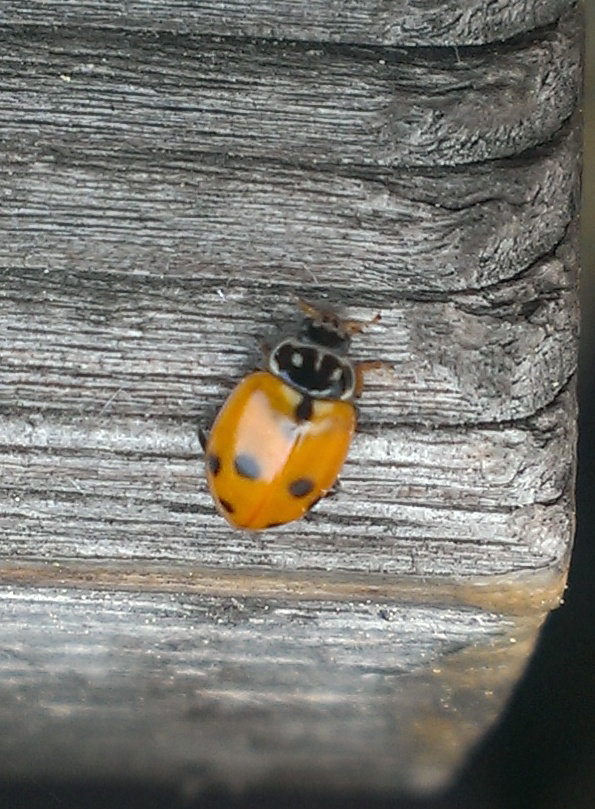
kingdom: Animalia
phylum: Arthropoda
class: Insecta
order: Coleoptera
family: Coccinellidae
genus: Hippodamia
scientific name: Hippodamia variegata
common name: Ladybird beetle
